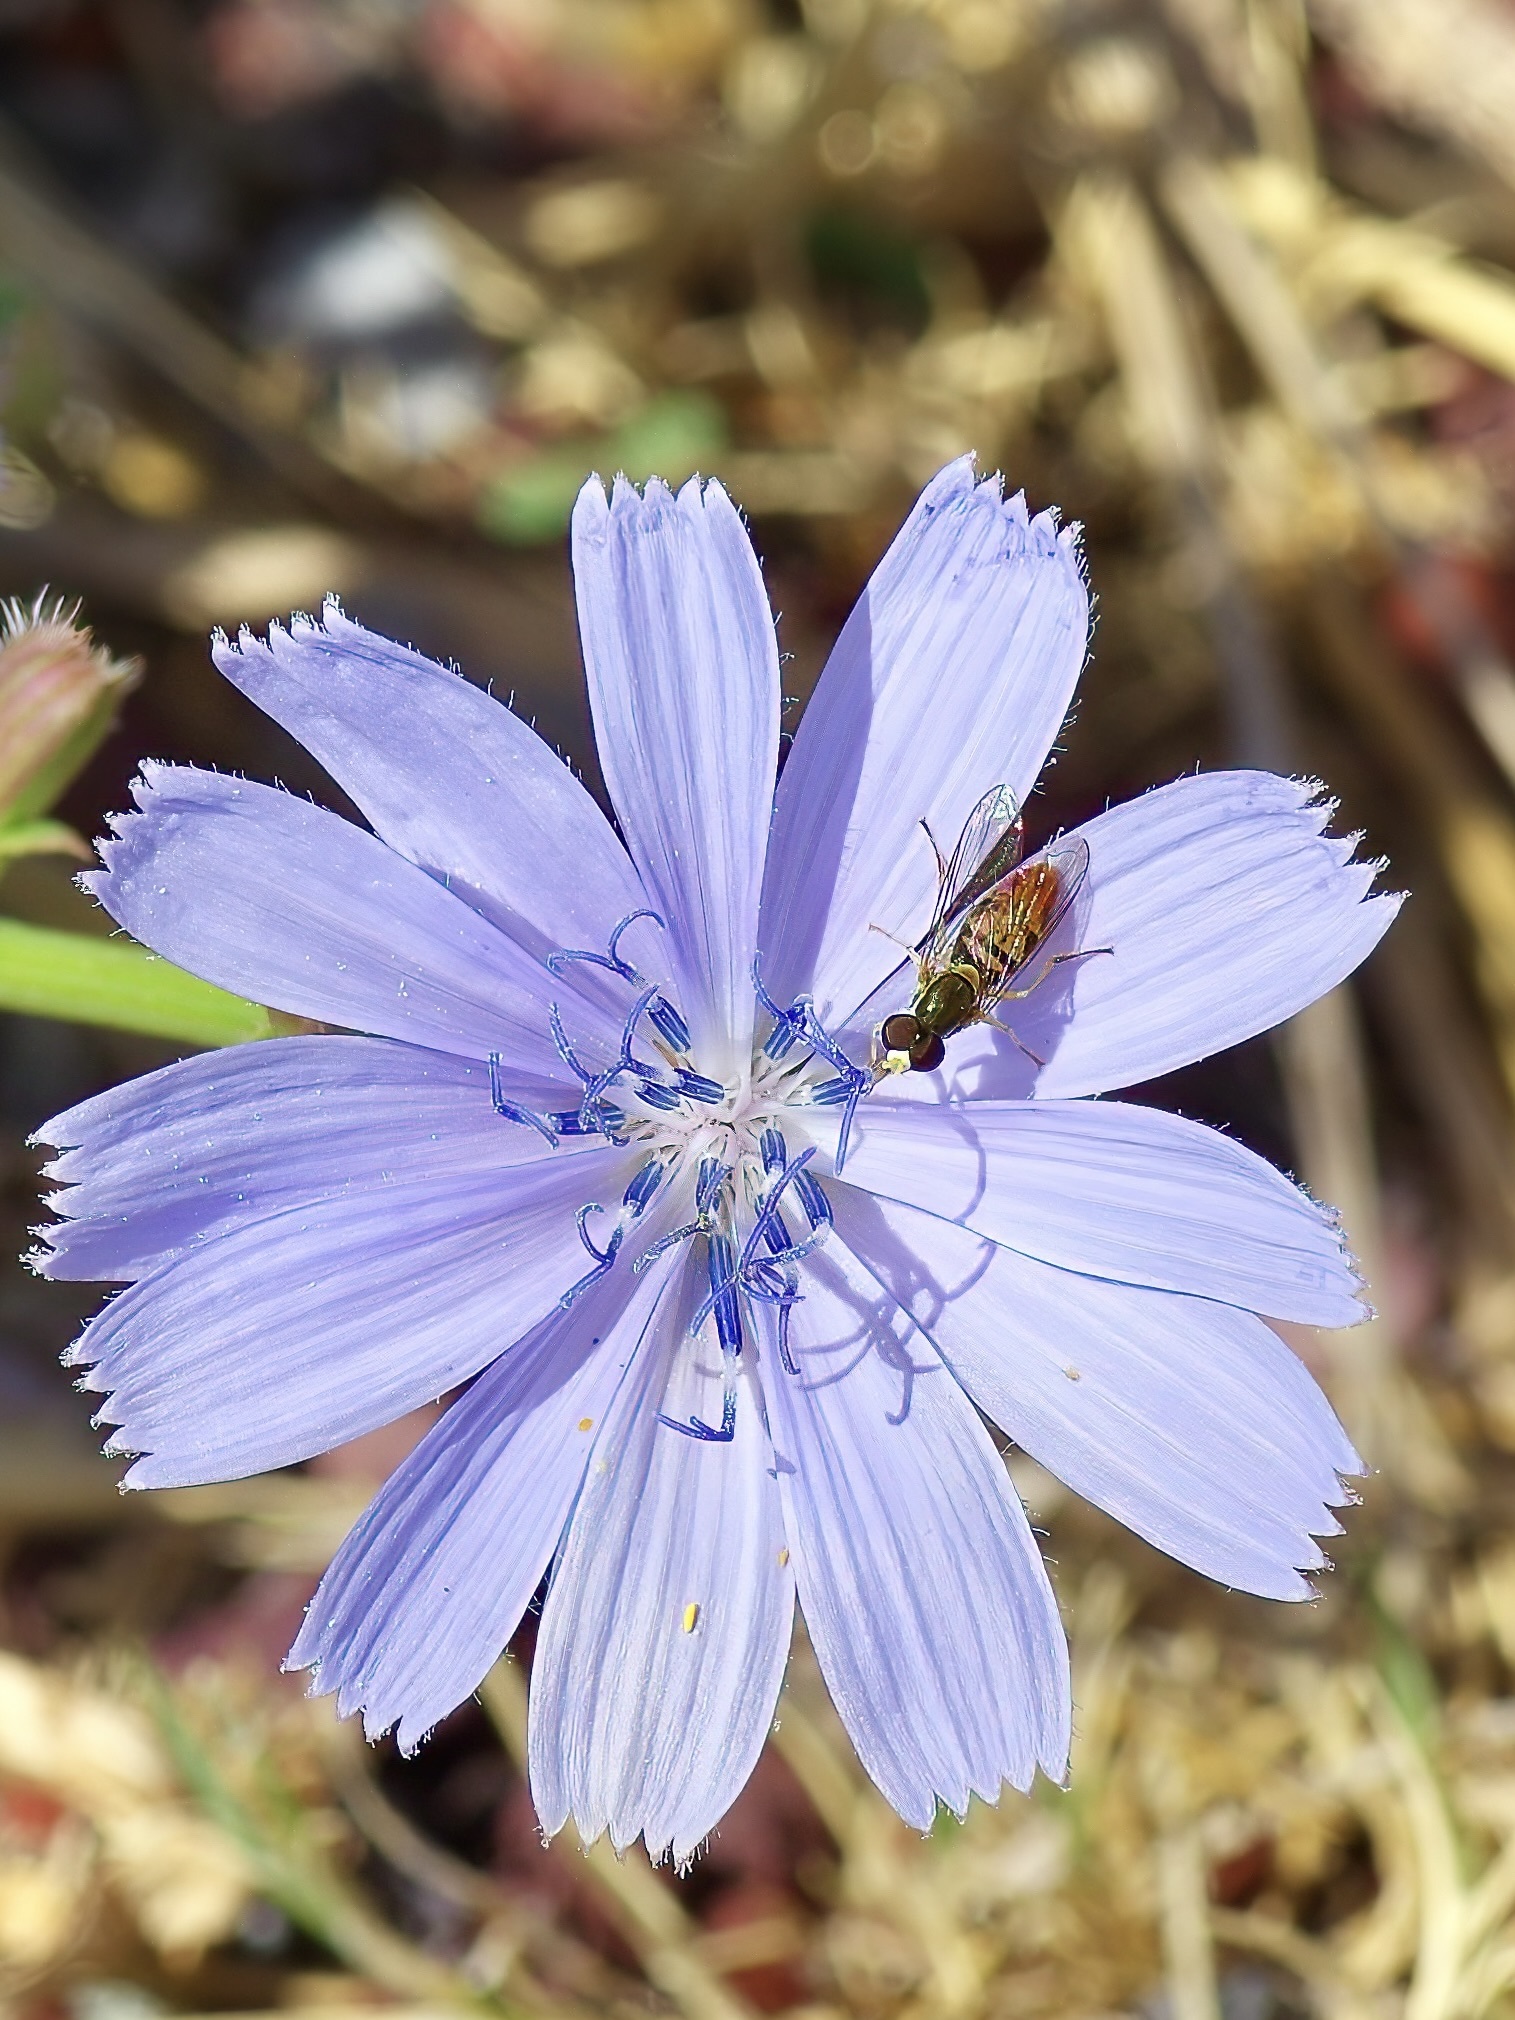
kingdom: Animalia
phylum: Arthropoda
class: Insecta
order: Diptera
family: Syrphidae
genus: Toxomerus
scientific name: Toxomerus marginatus
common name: Syrphid fly
